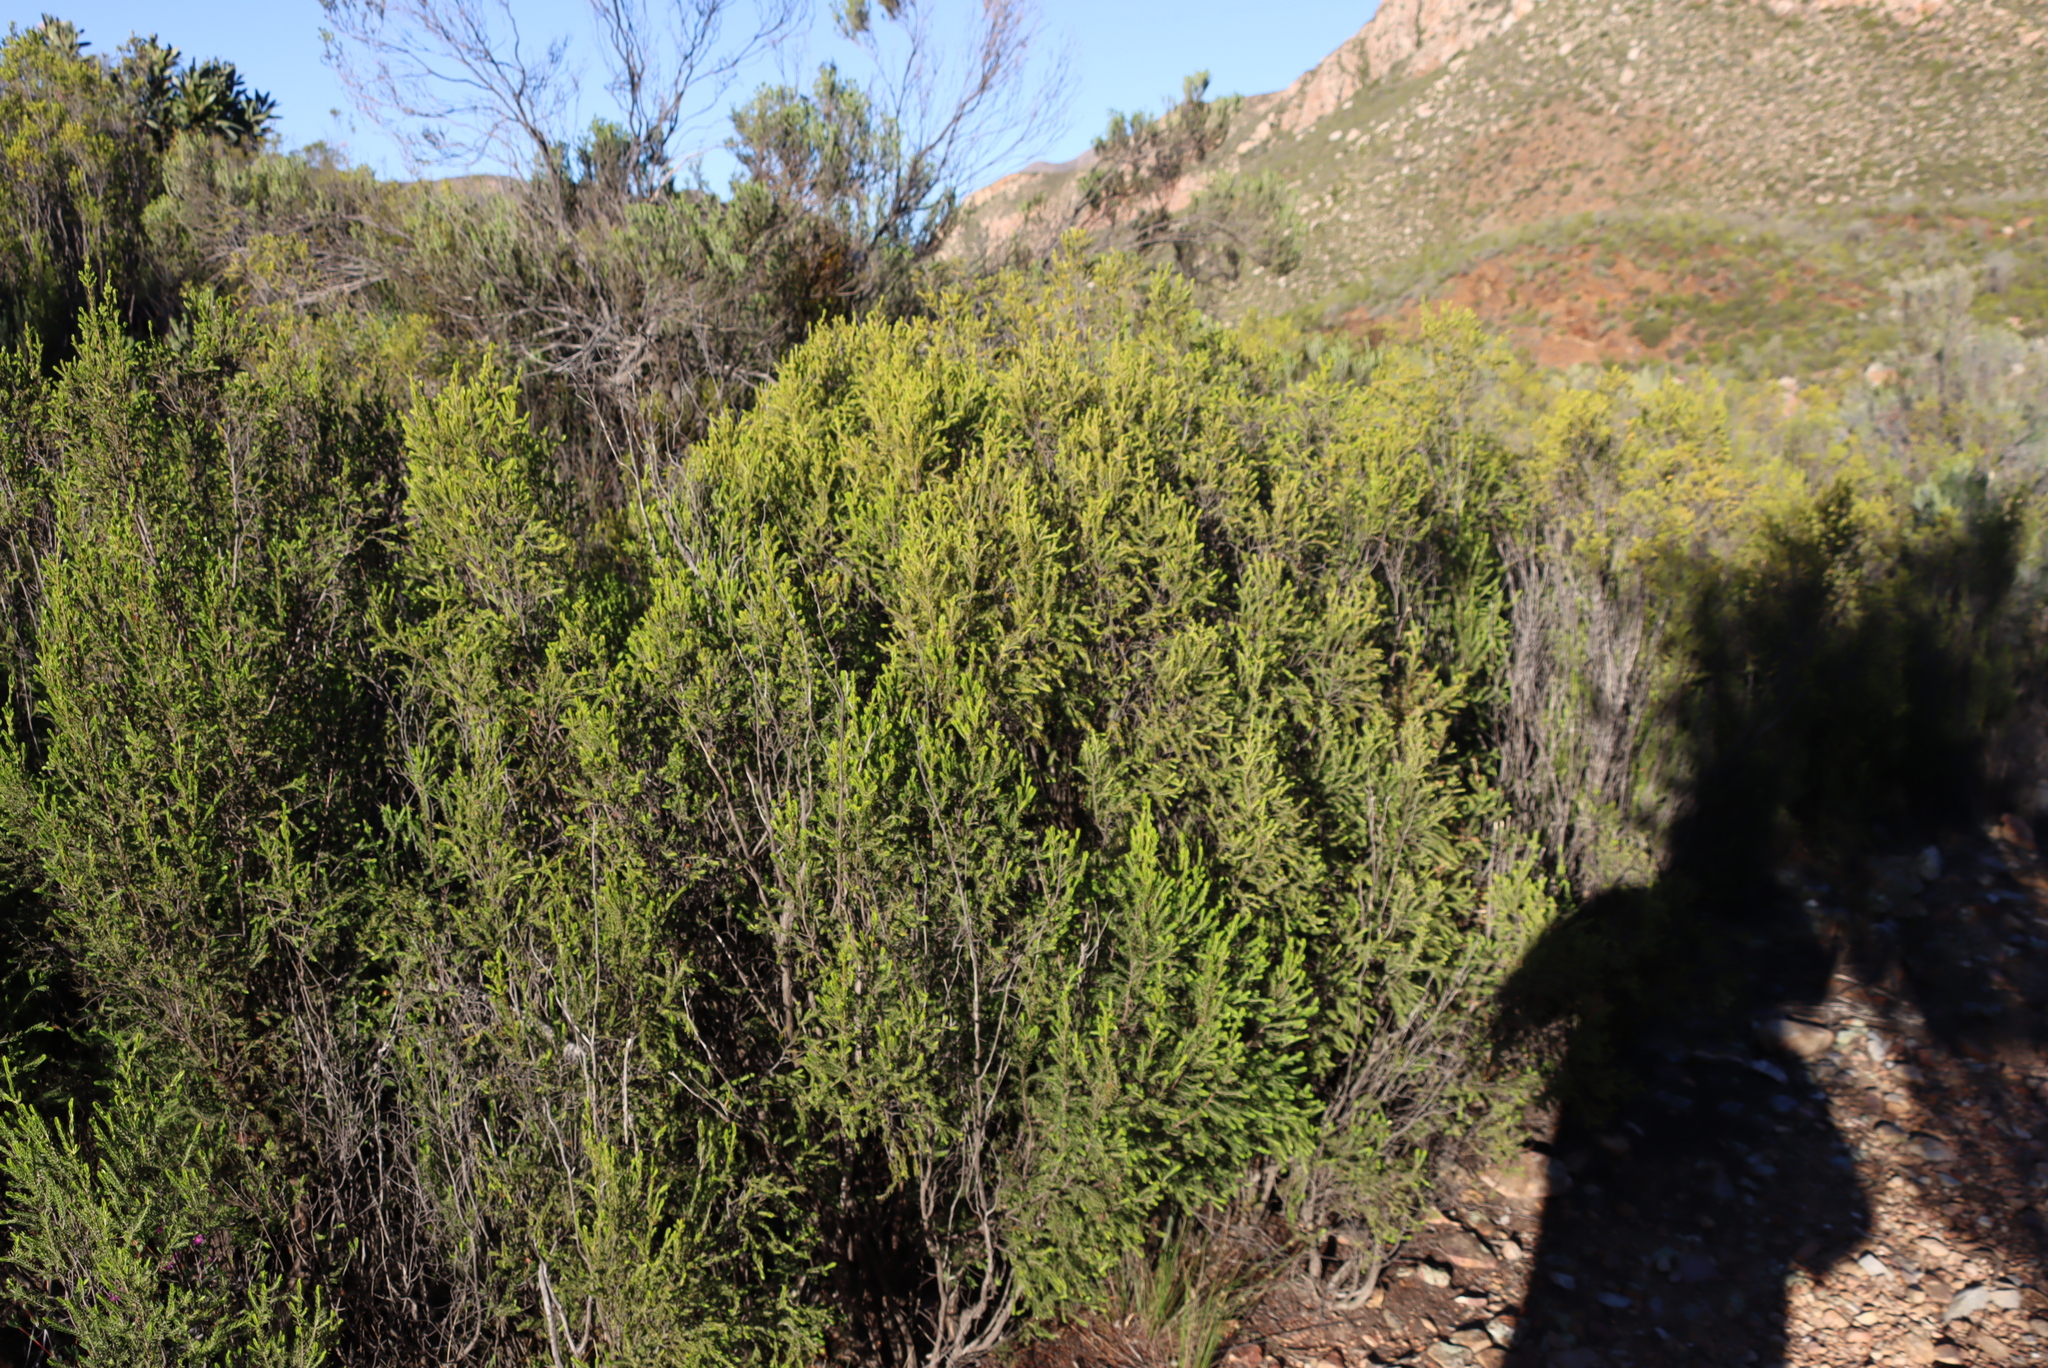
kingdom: Plantae
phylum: Tracheophyta
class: Magnoliopsida
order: Malvales
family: Thymelaeaceae
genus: Passerina
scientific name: Passerina obtusifolia
